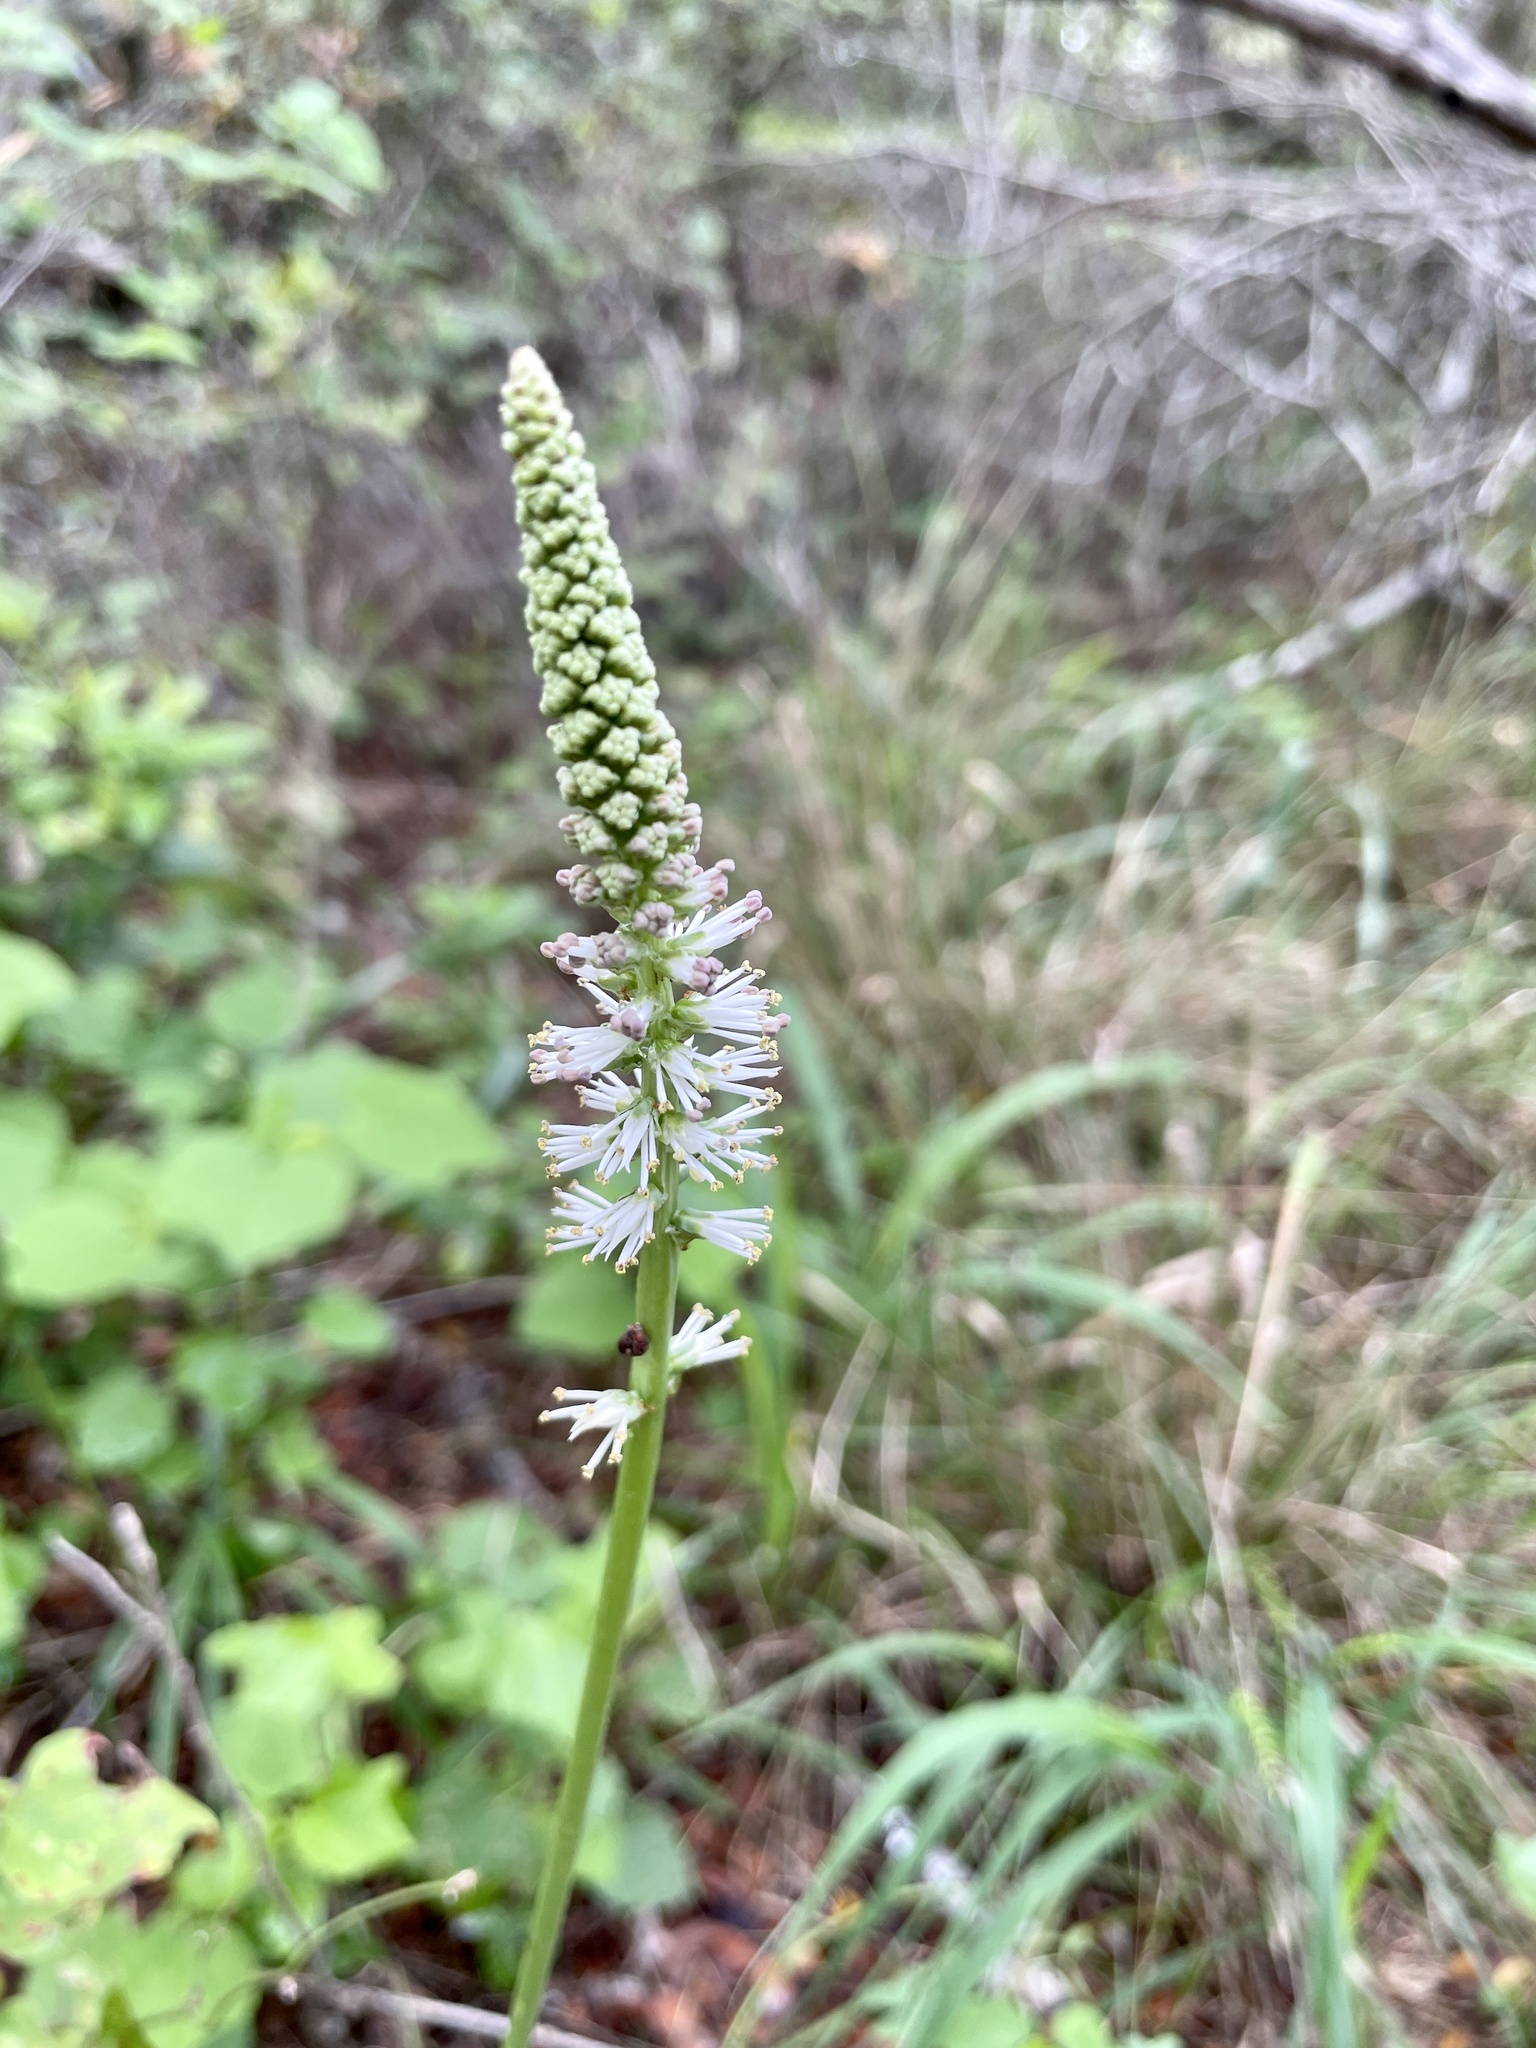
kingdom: Plantae
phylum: Tracheophyta
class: Liliopsida
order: Liliales
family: Melanthiaceae
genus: Schoenocaulon
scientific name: Schoenocaulon ghiesbreghtii
